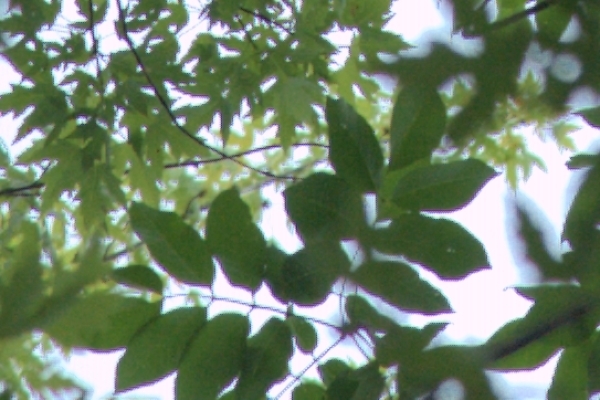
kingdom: Plantae
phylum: Tracheophyta
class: Magnoliopsida
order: Lamiales
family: Oleaceae
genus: Fraxinus
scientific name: Fraxinus americana
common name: White ash
